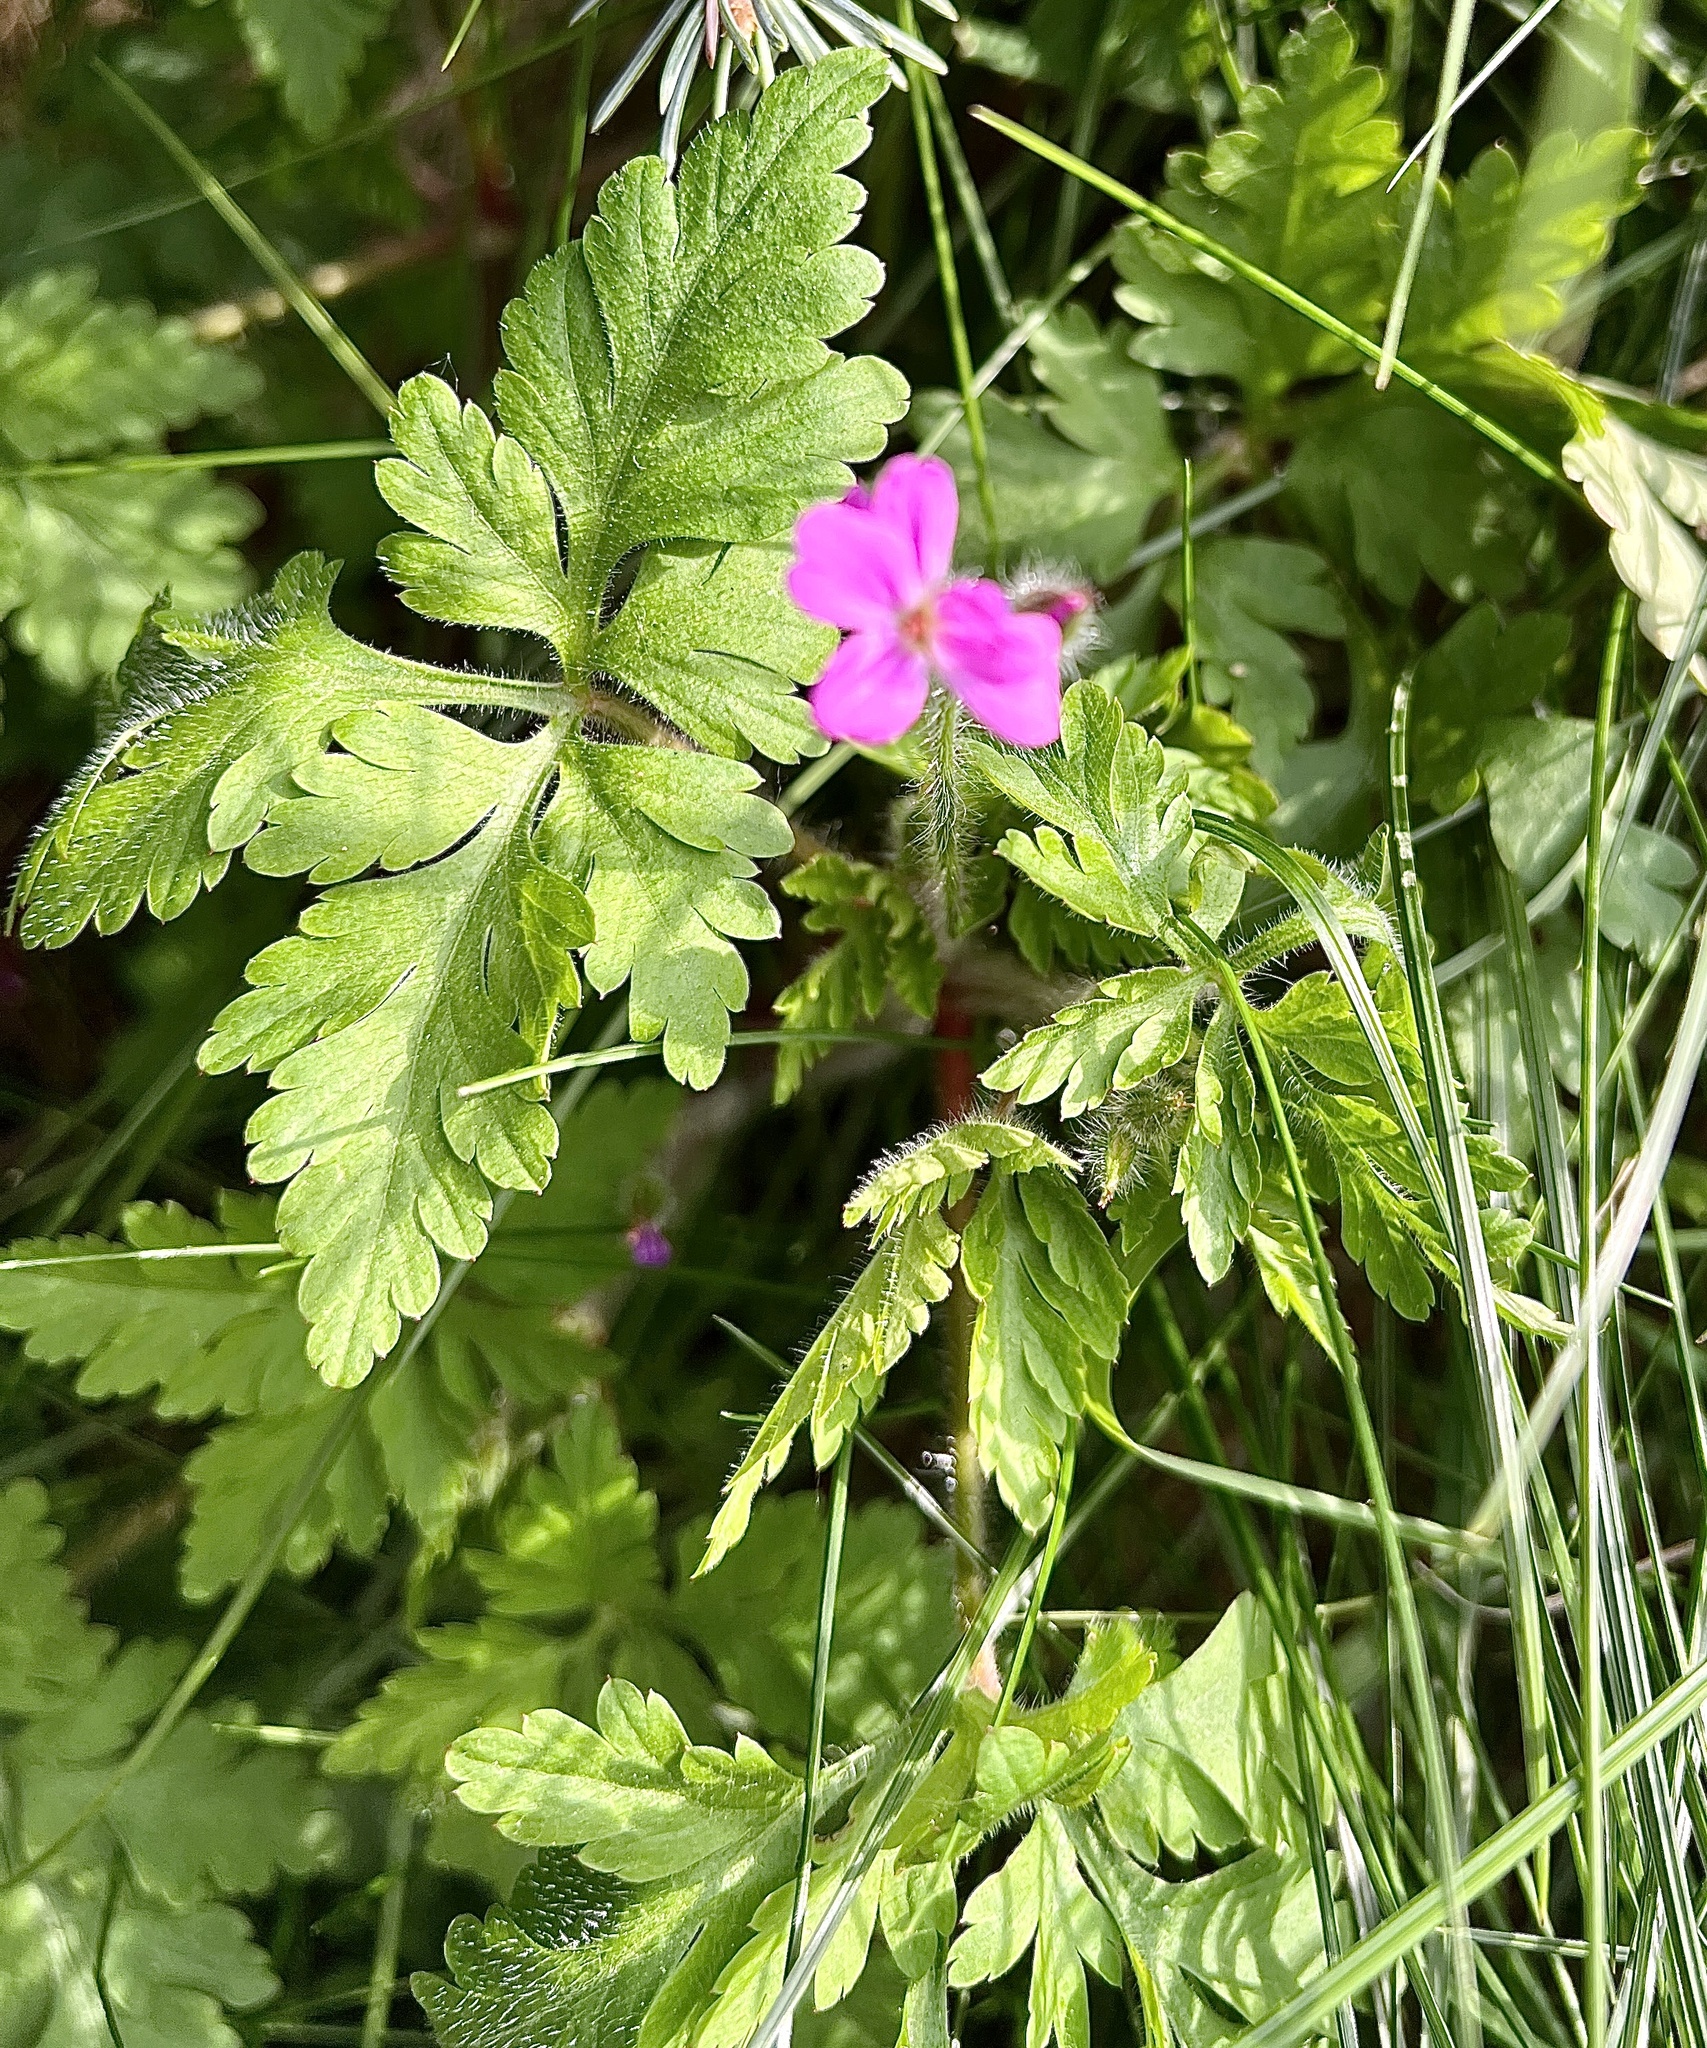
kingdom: Plantae
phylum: Tracheophyta
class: Magnoliopsida
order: Geraniales
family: Geraniaceae
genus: Geranium
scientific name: Geranium robertianum
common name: Herb-robert
